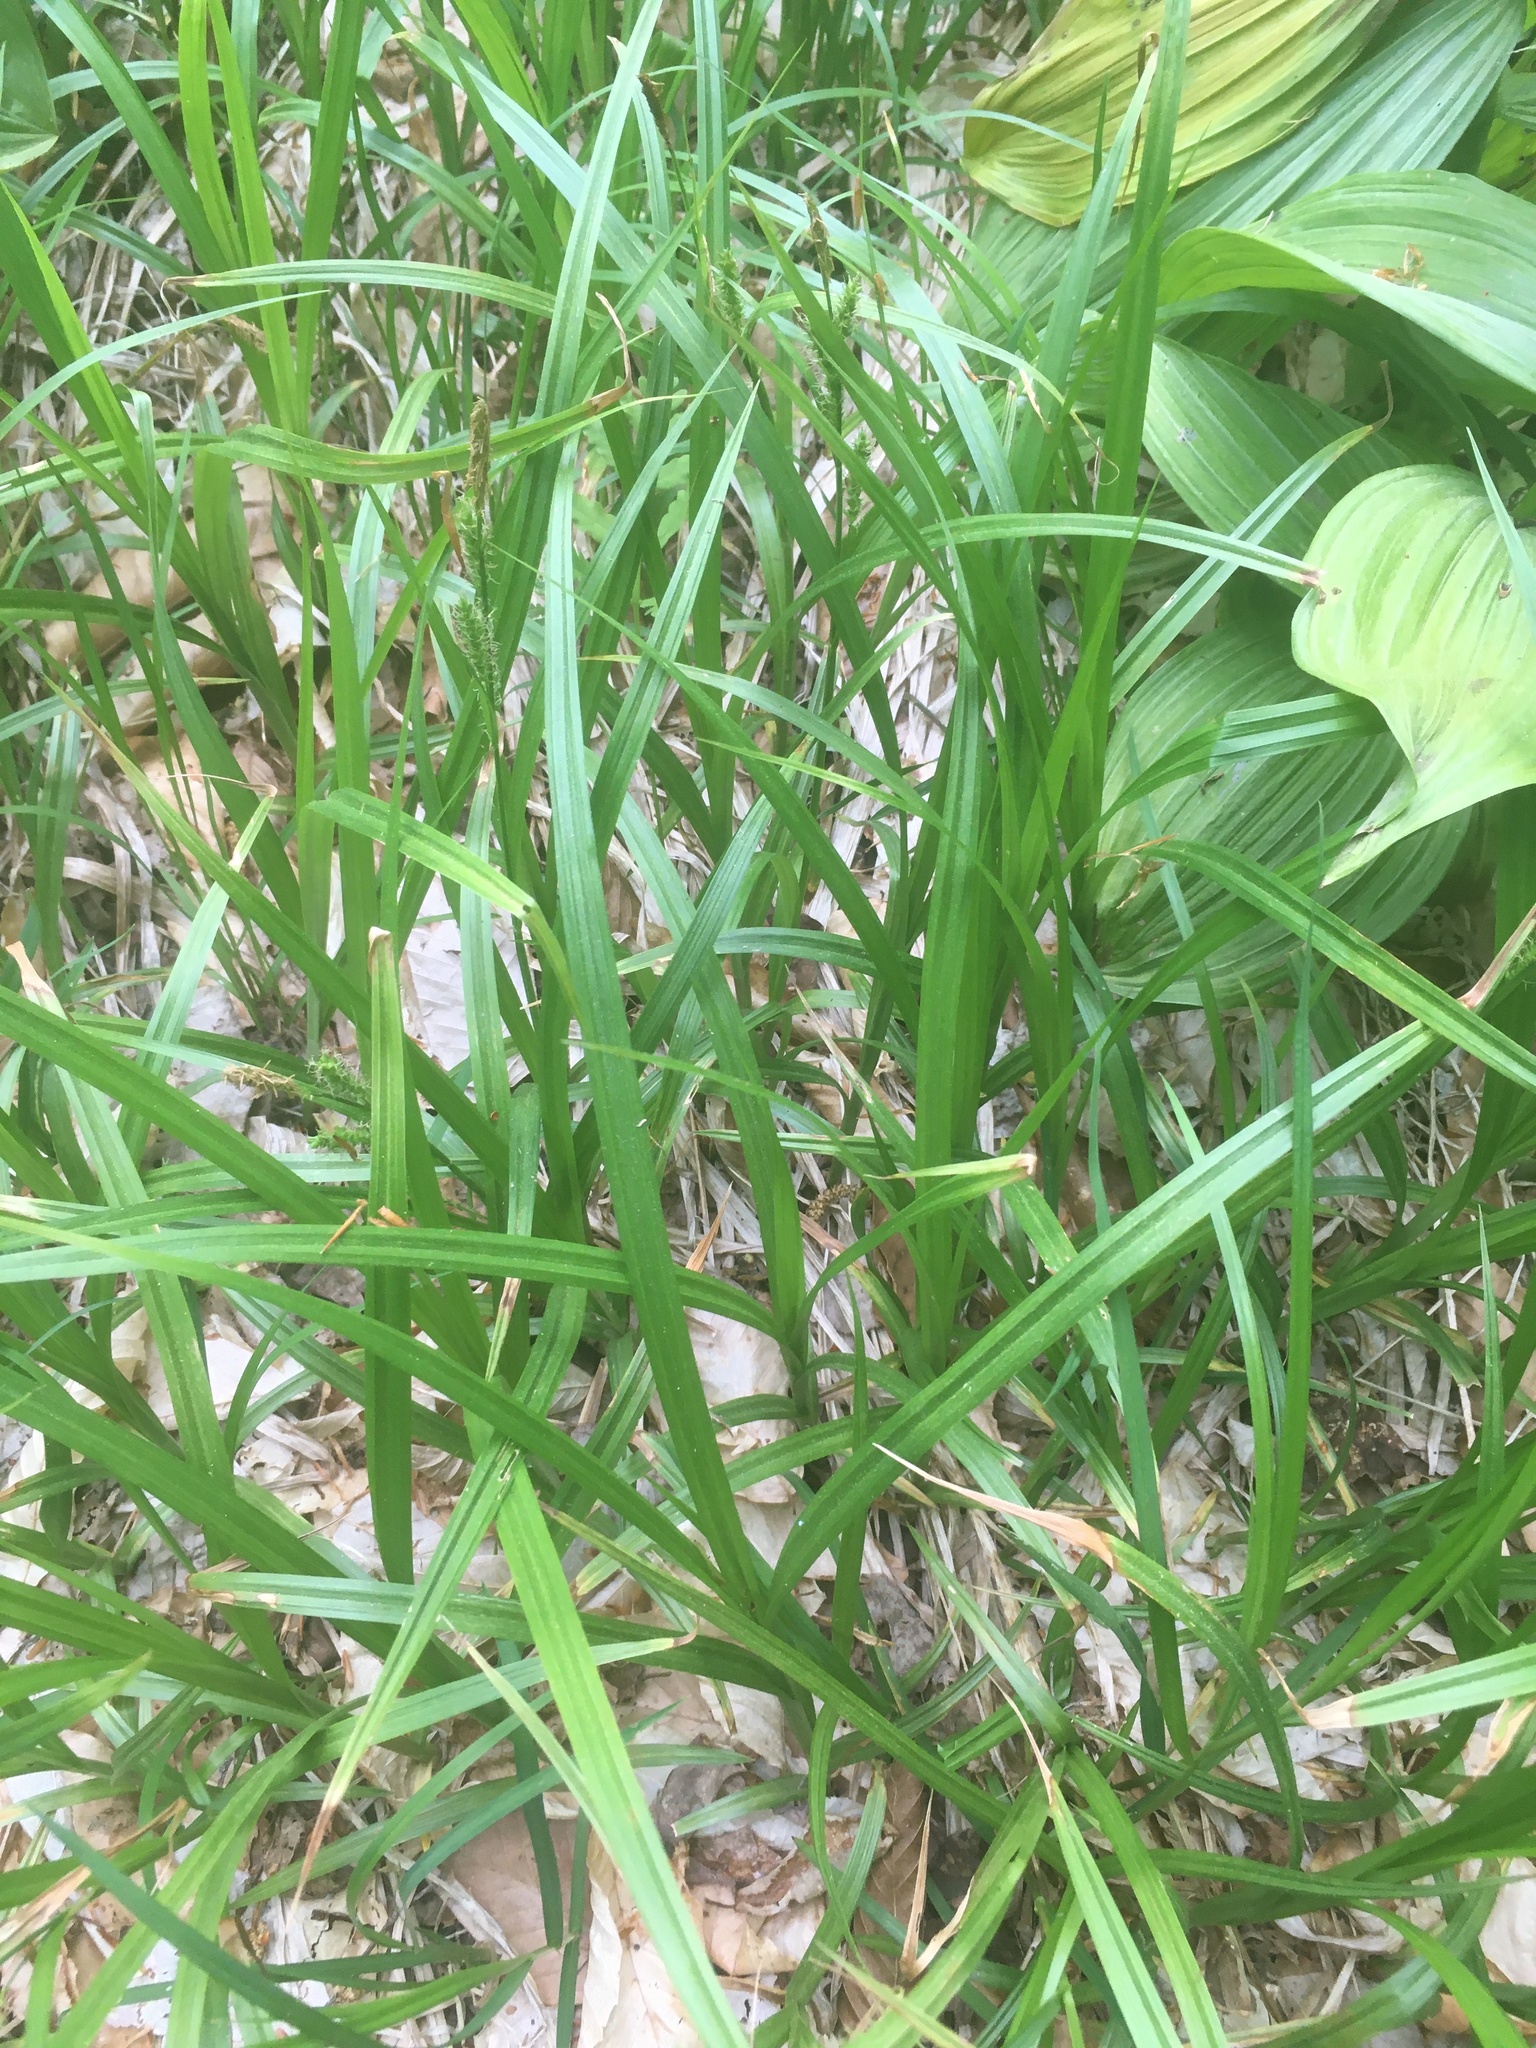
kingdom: Plantae
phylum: Tracheophyta
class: Liliopsida
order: Poales
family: Cyperaceae
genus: Carex
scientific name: Carex scabrata
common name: Eastern rough sedge
